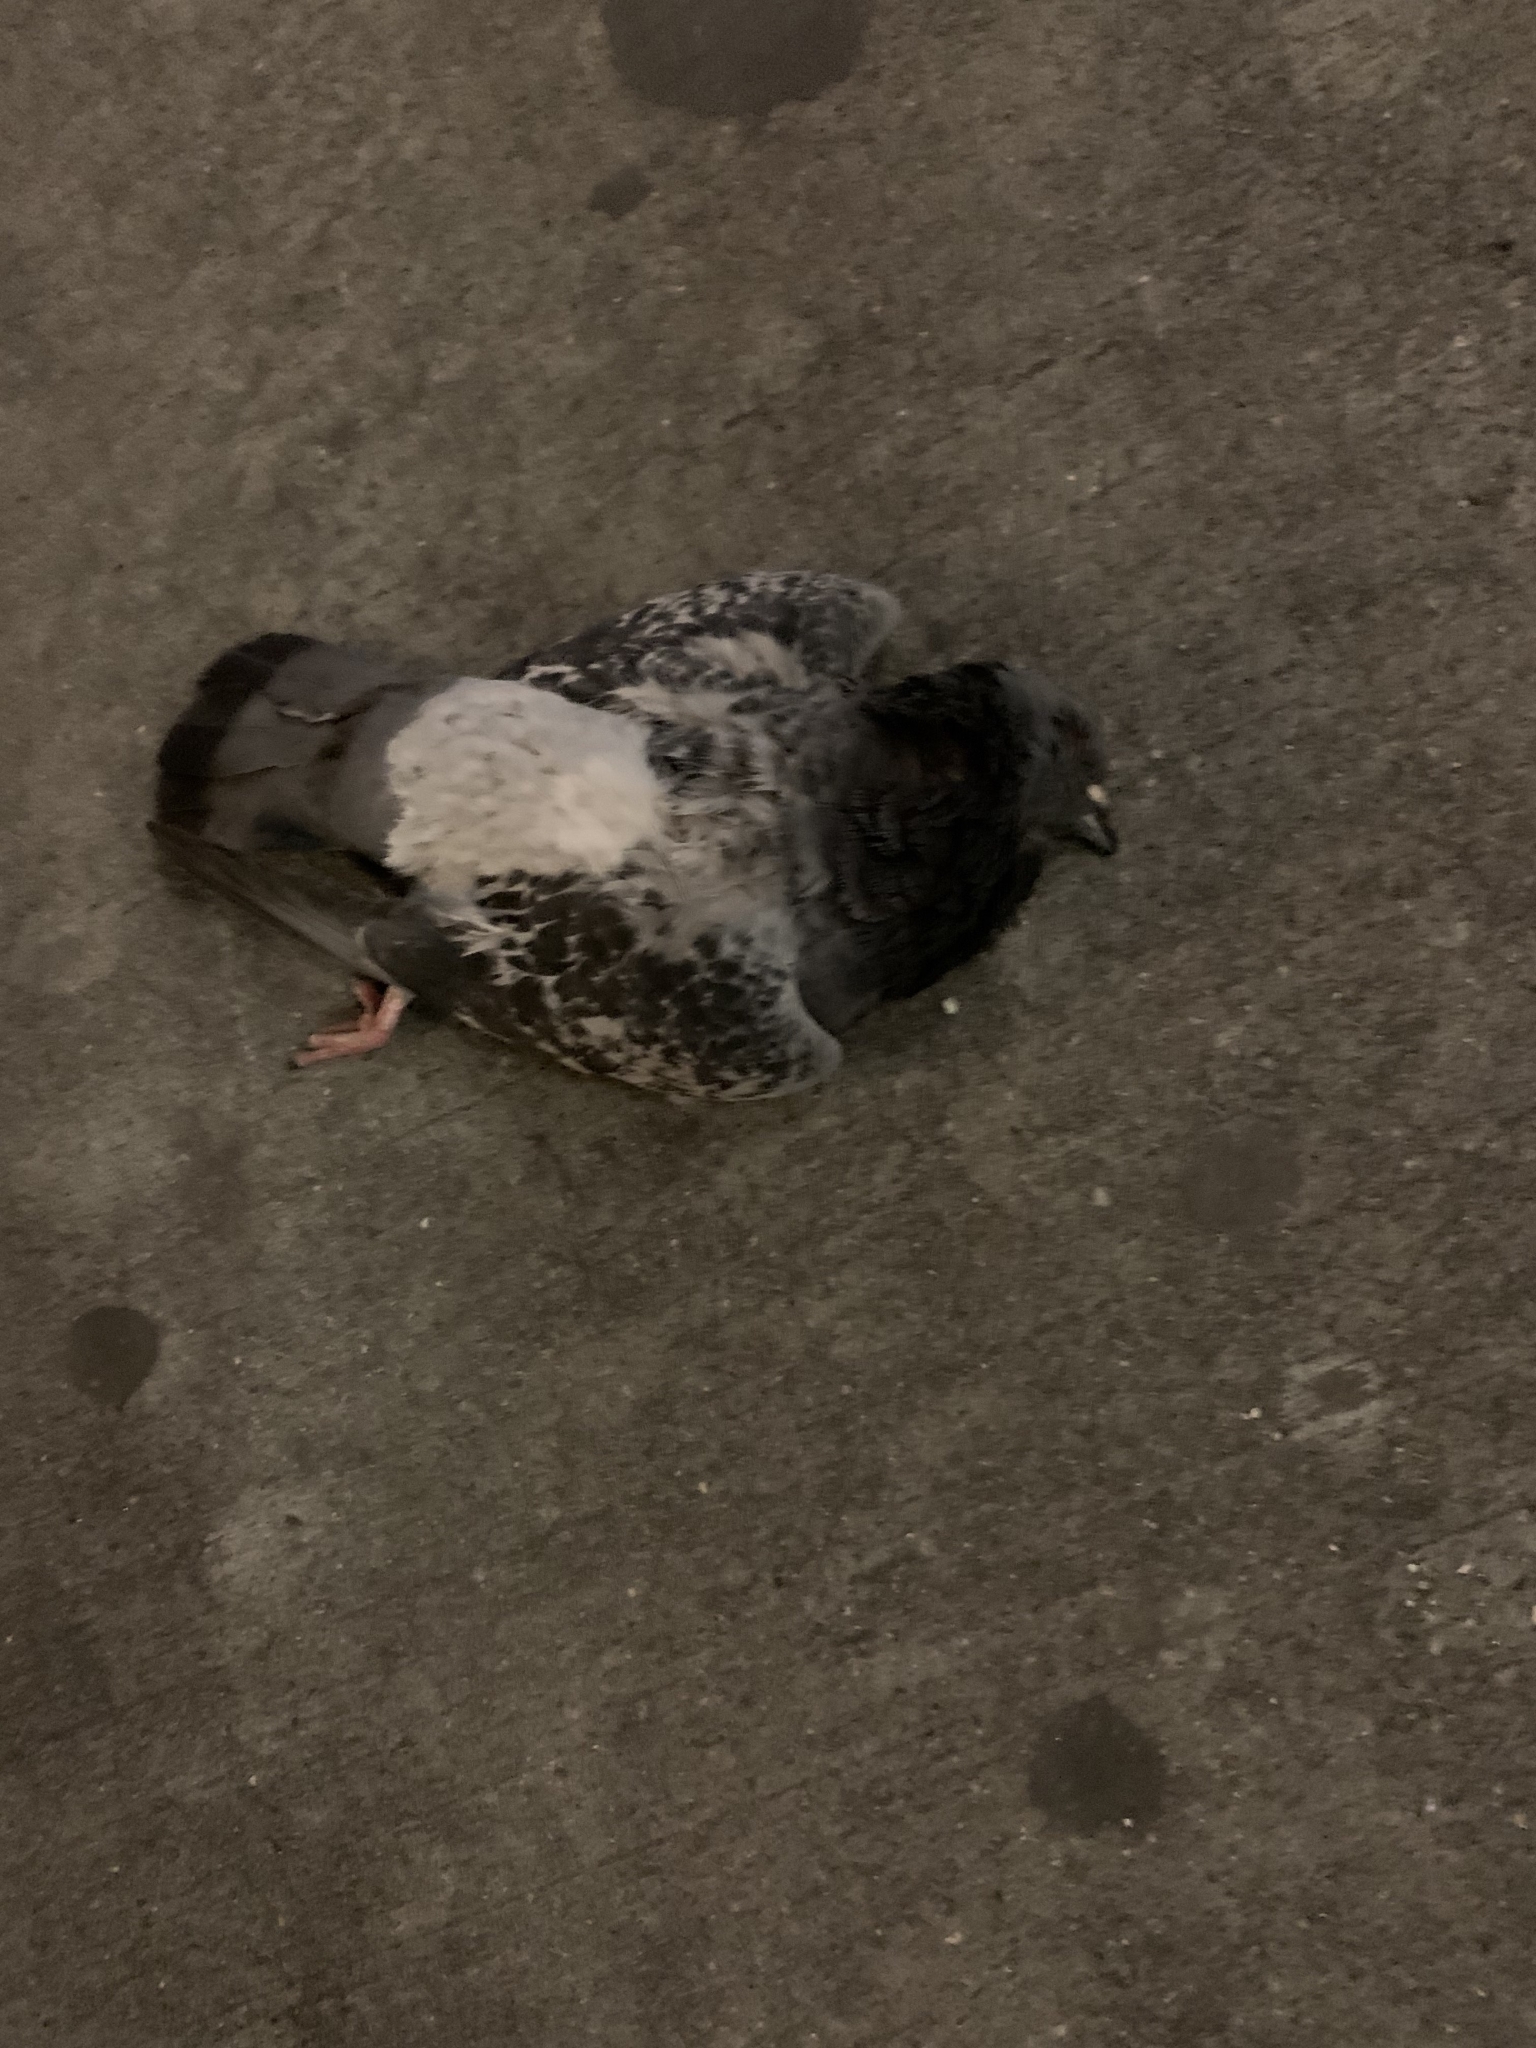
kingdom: Animalia
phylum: Chordata
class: Aves
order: Columbiformes
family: Columbidae
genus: Columba
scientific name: Columba livia
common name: Rock pigeon
